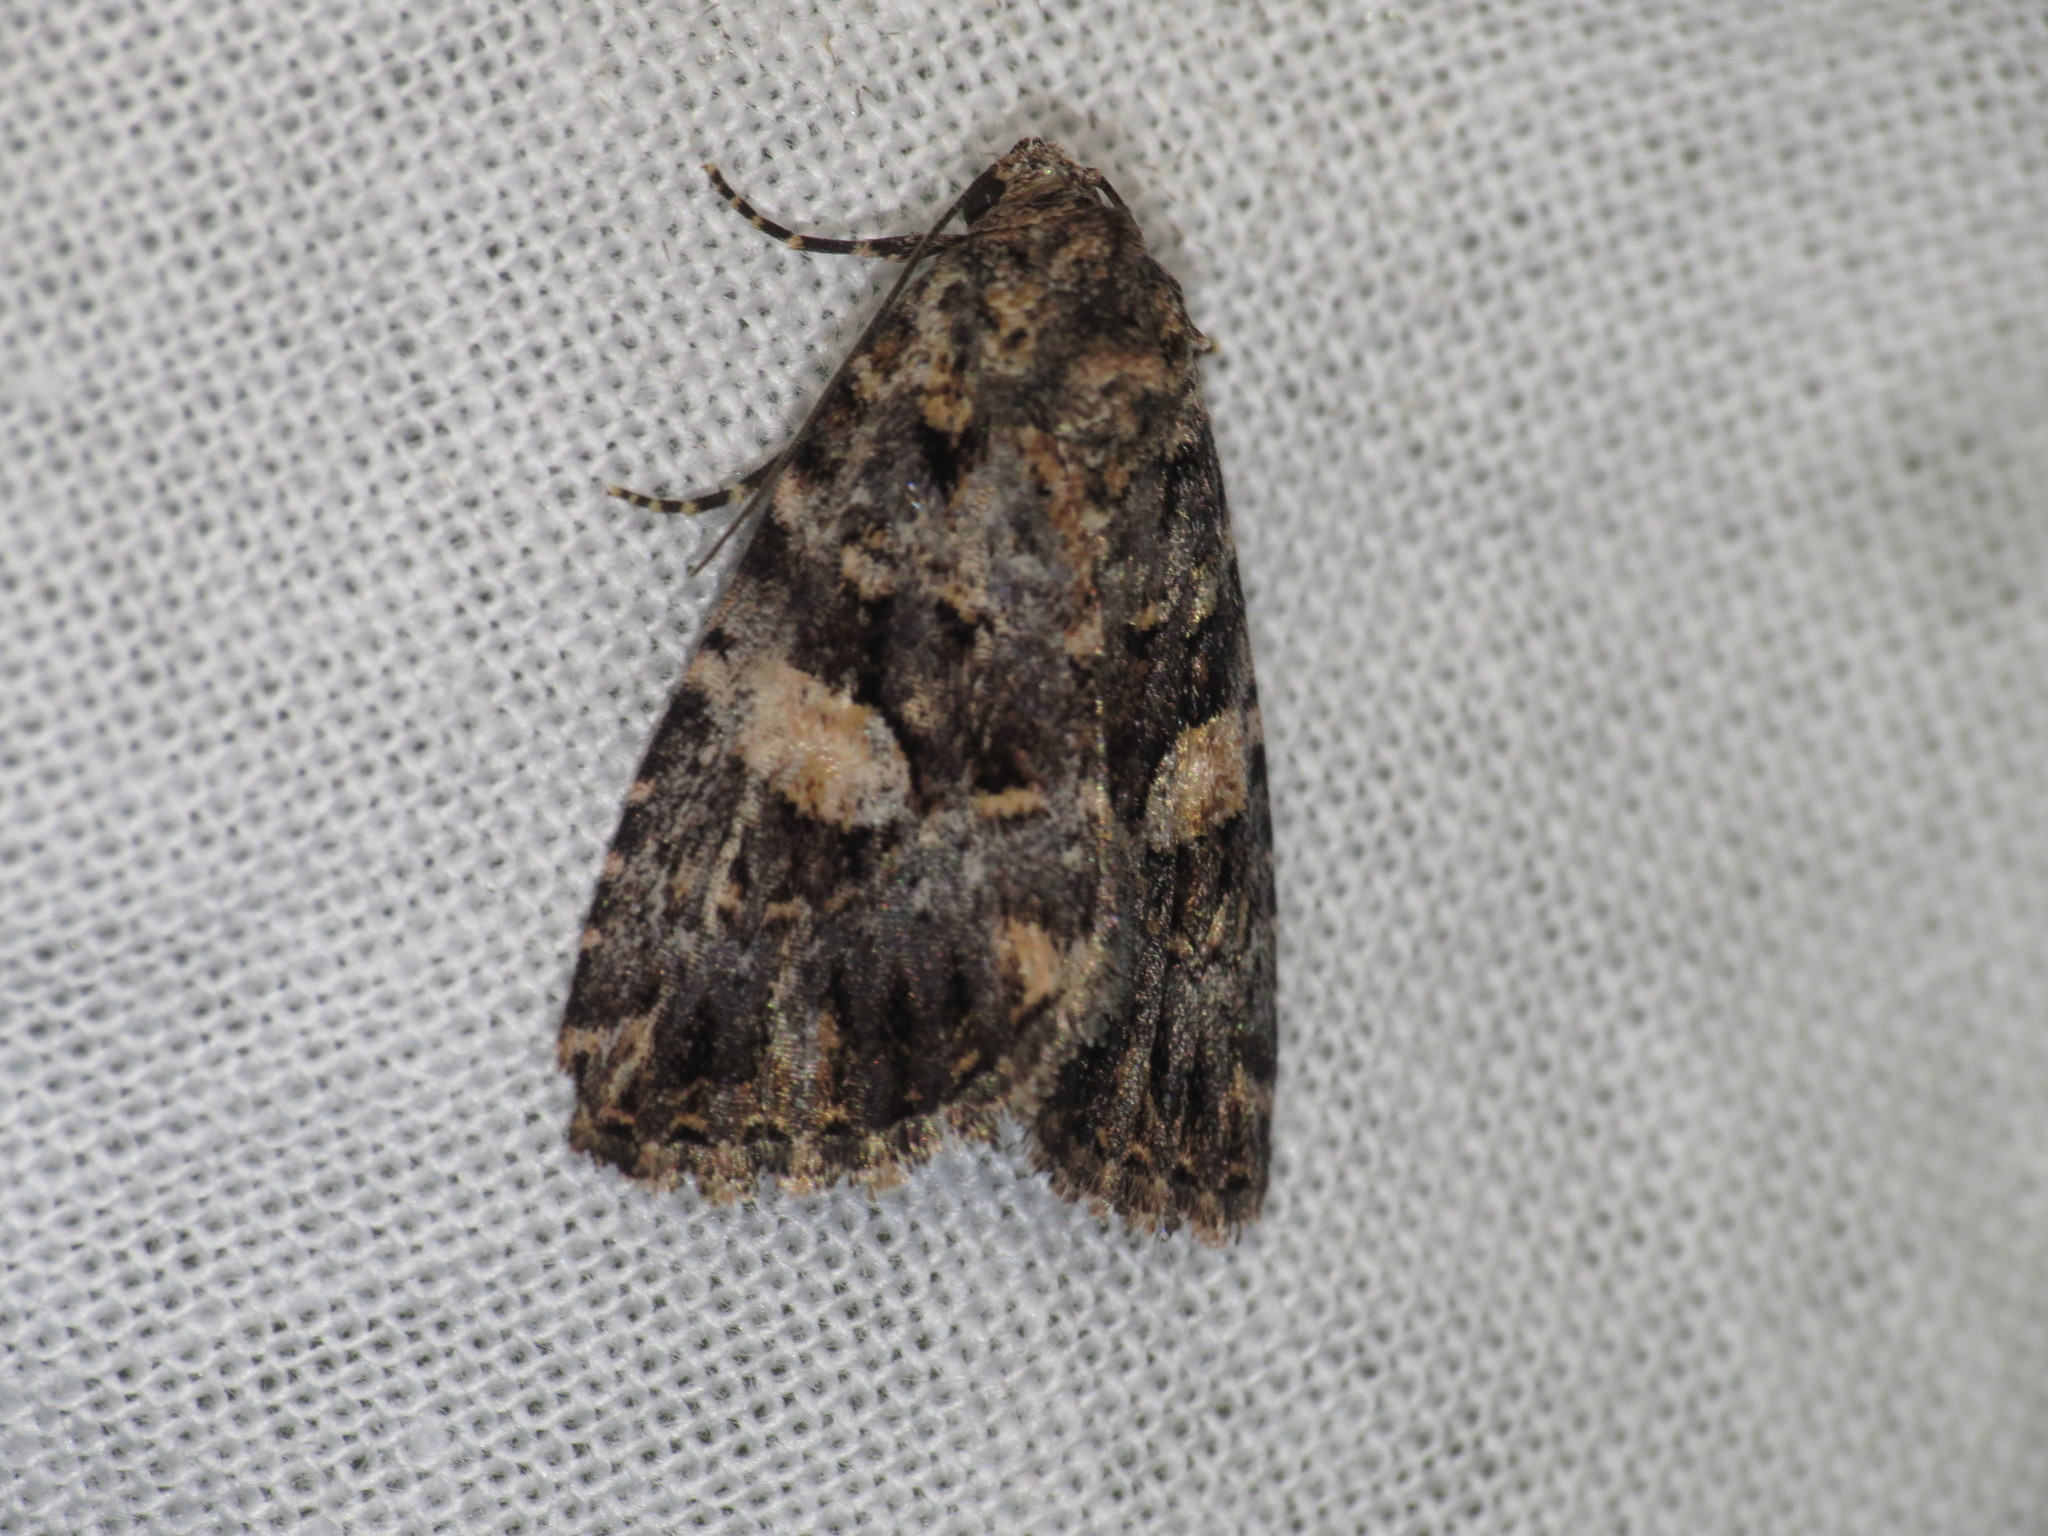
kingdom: Animalia
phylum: Arthropoda
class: Insecta
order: Lepidoptera
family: Noctuidae
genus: Condica
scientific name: Condica
